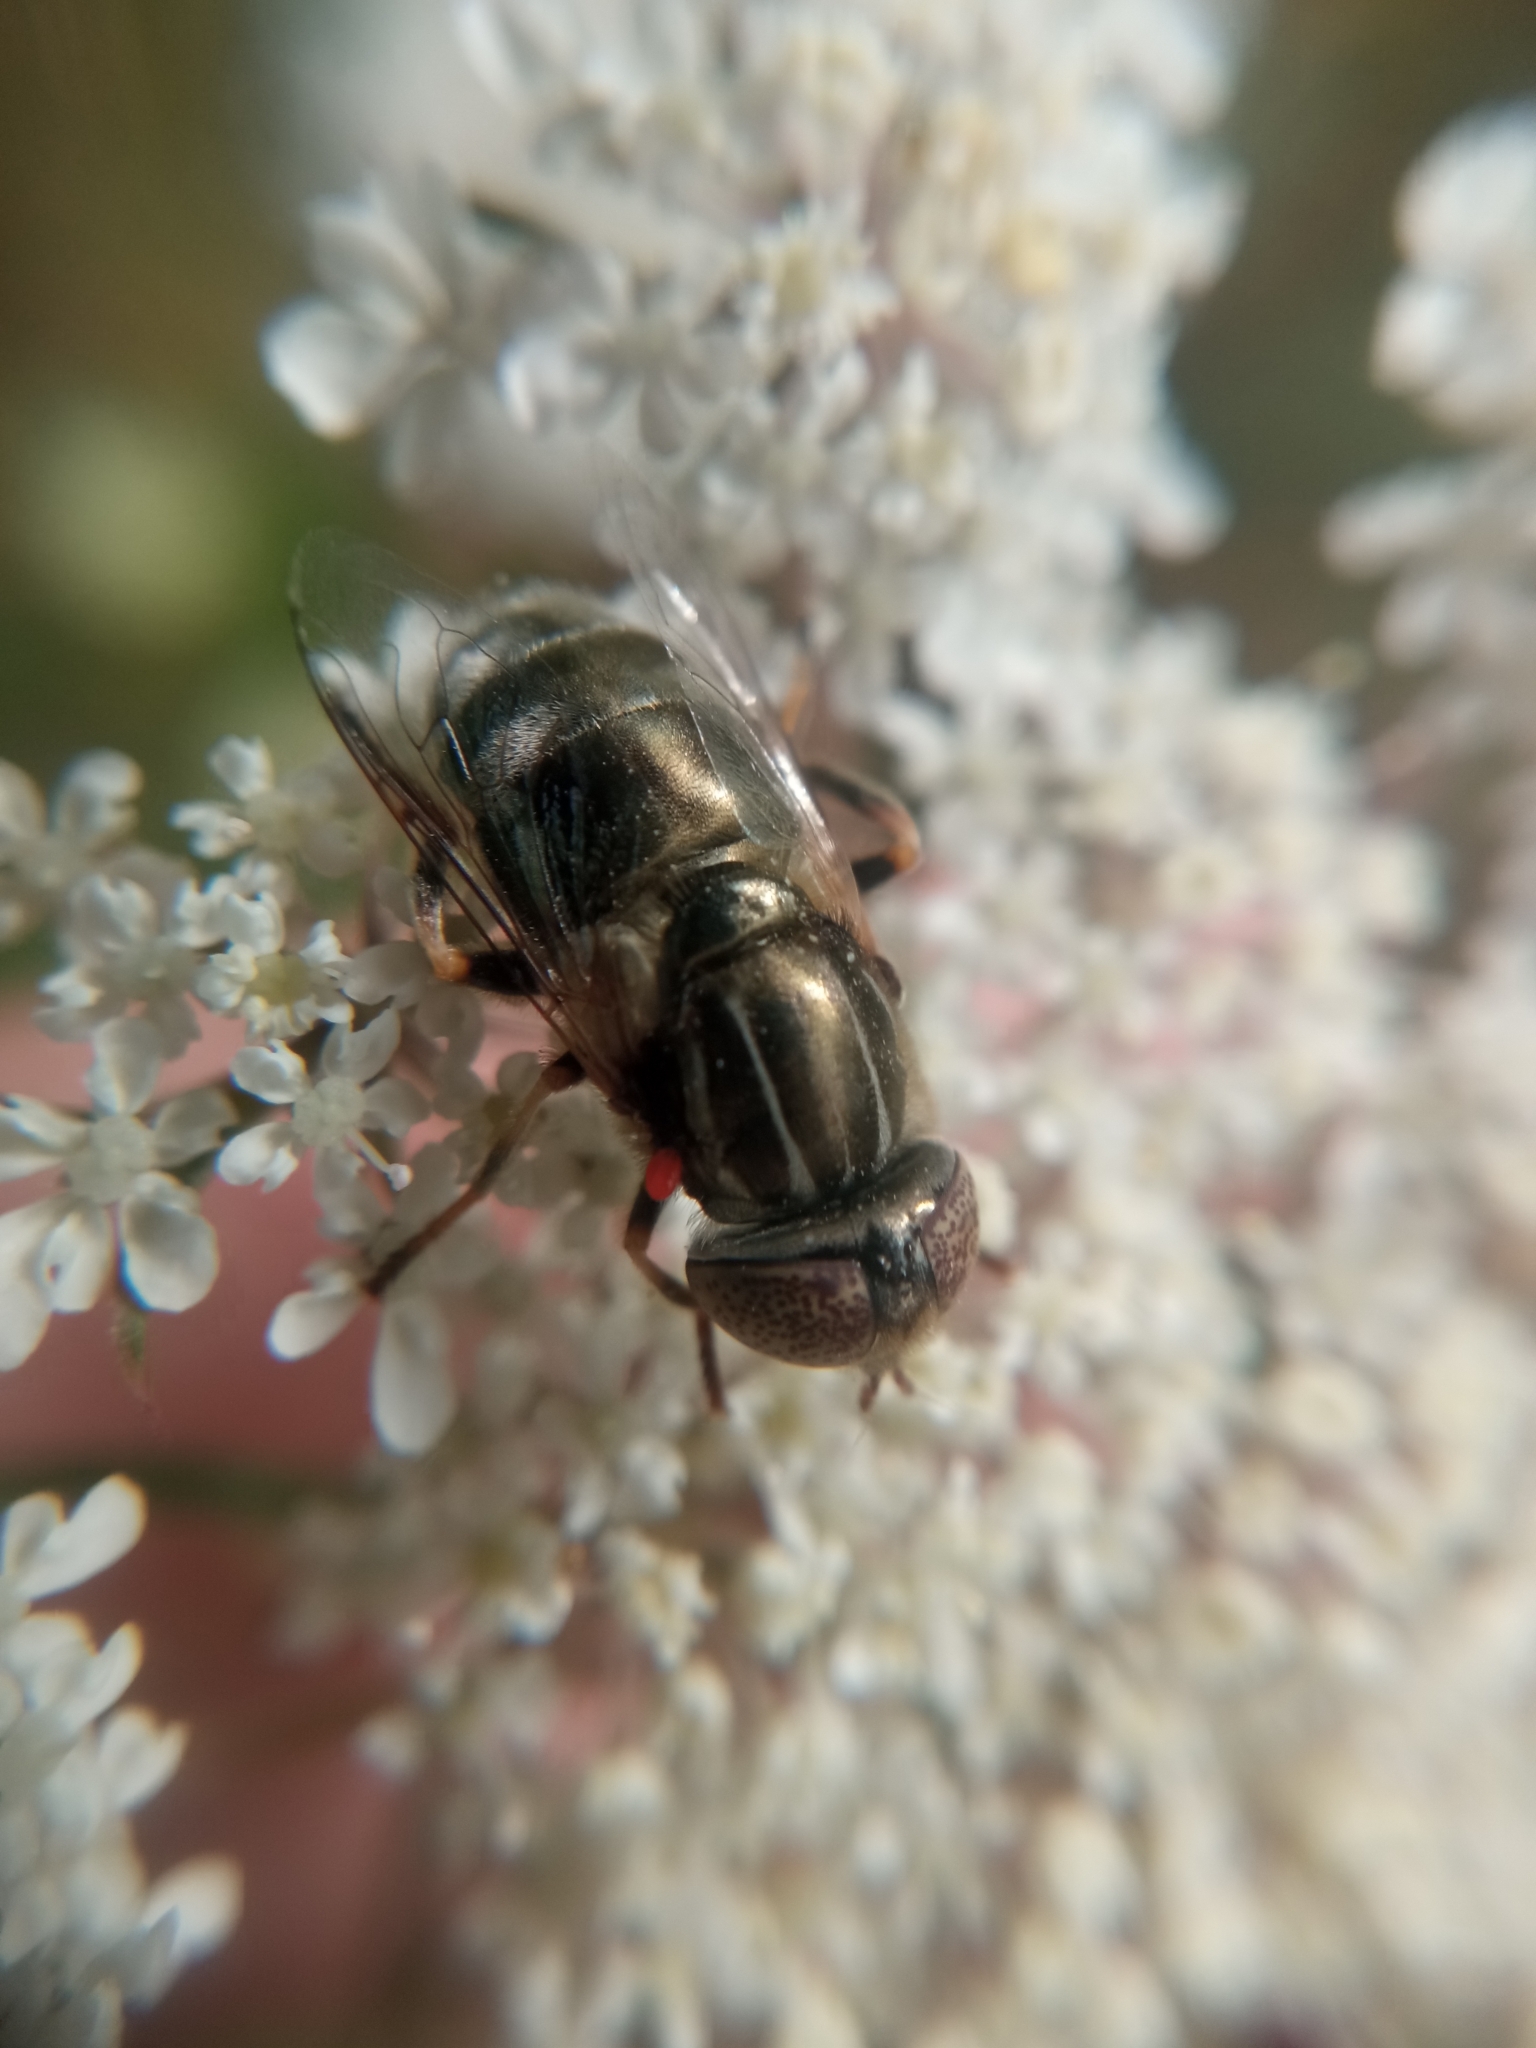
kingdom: Animalia
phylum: Arthropoda
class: Insecta
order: Diptera
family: Syrphidae
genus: Eristalinus
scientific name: Eristalinus aeneus
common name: Syrphid fly
